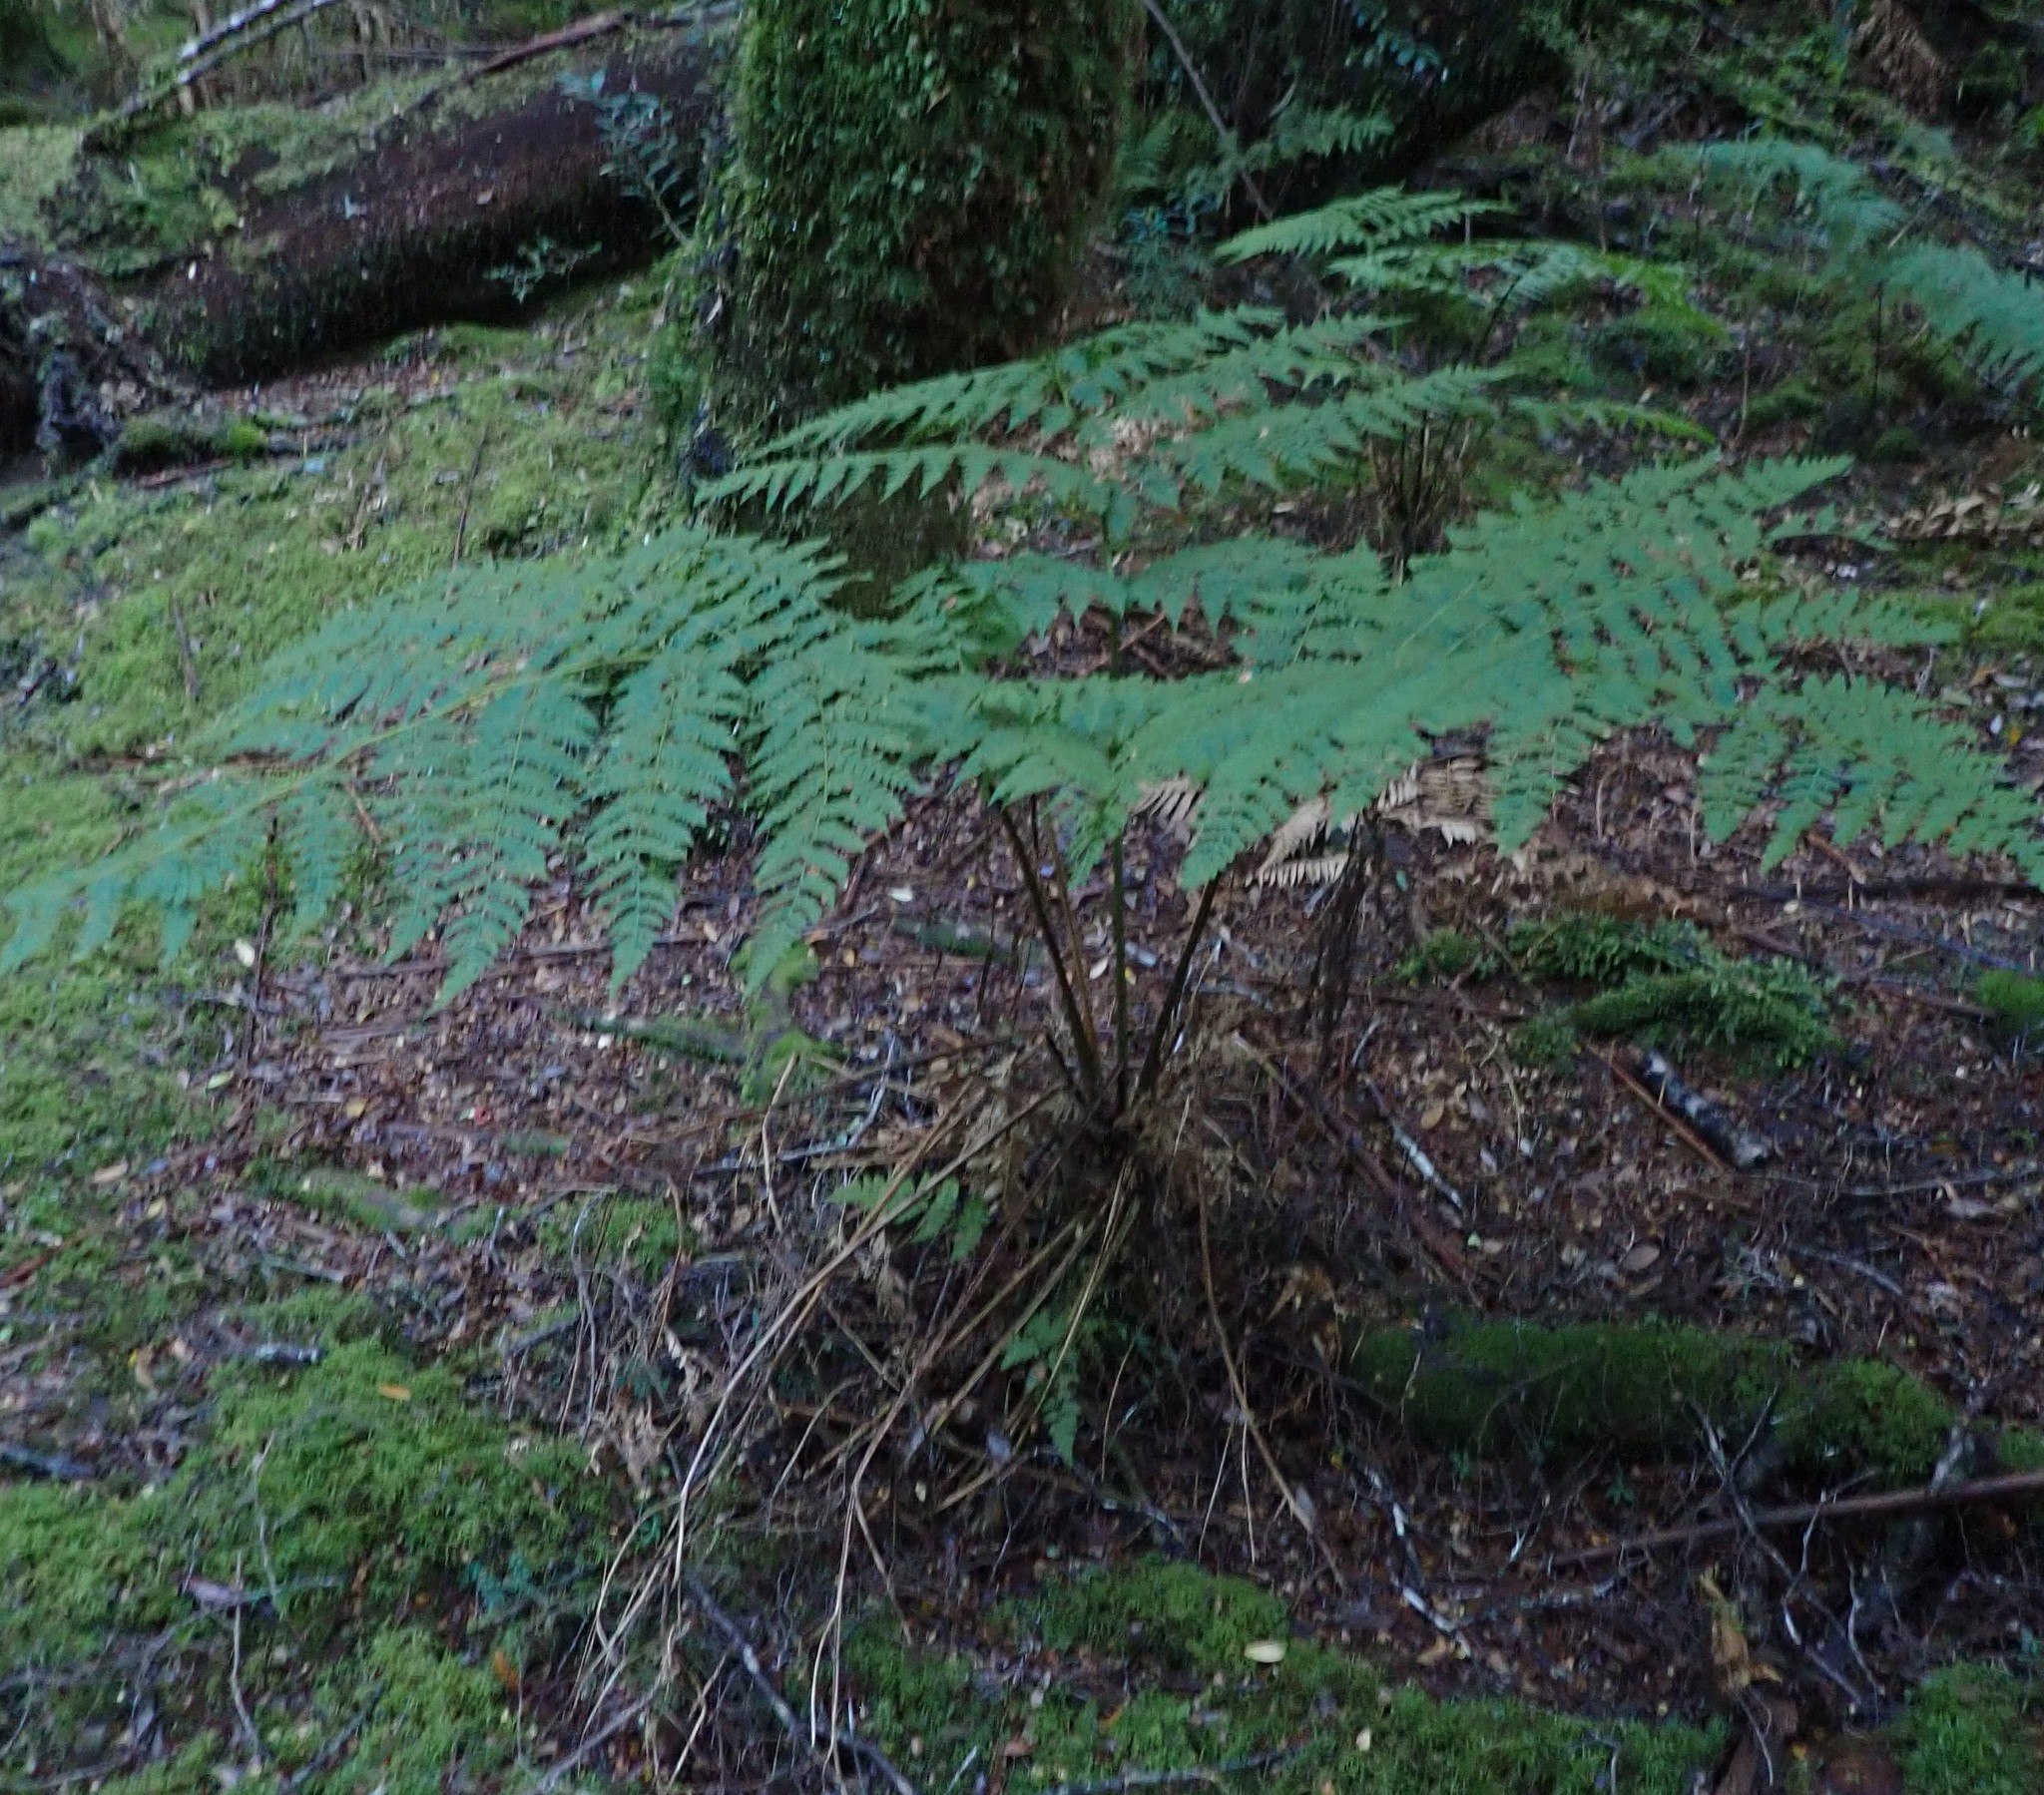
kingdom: Plantae
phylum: Tracheophyta
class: Polypodiopsida
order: Polypodiales
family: Athyriaceae
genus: Diplazium
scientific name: Diplazium australe
